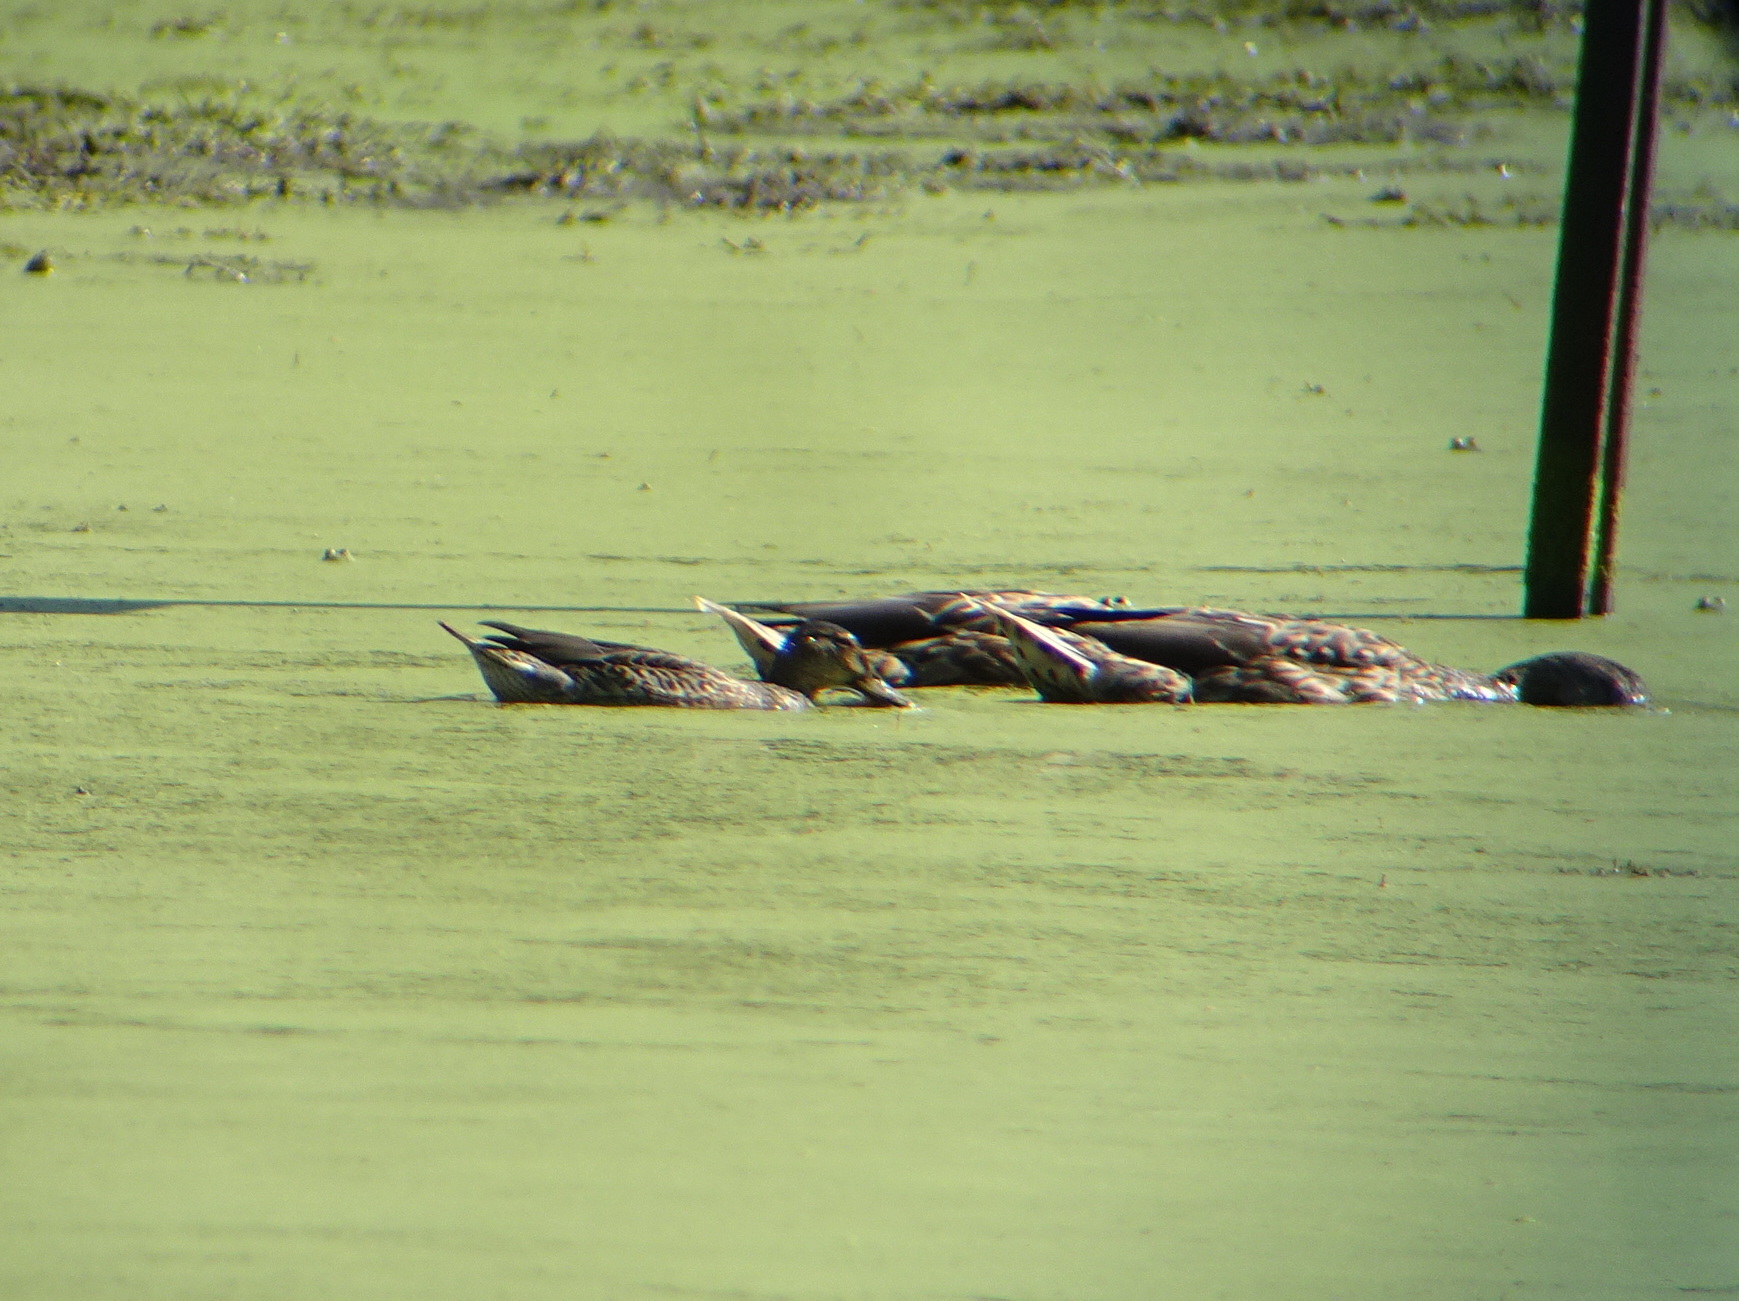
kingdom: Animalia
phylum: Chordata
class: Aves
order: Anseriformes
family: Anatidae
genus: Anas
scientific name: Anas crecca
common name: Eurasian teal
